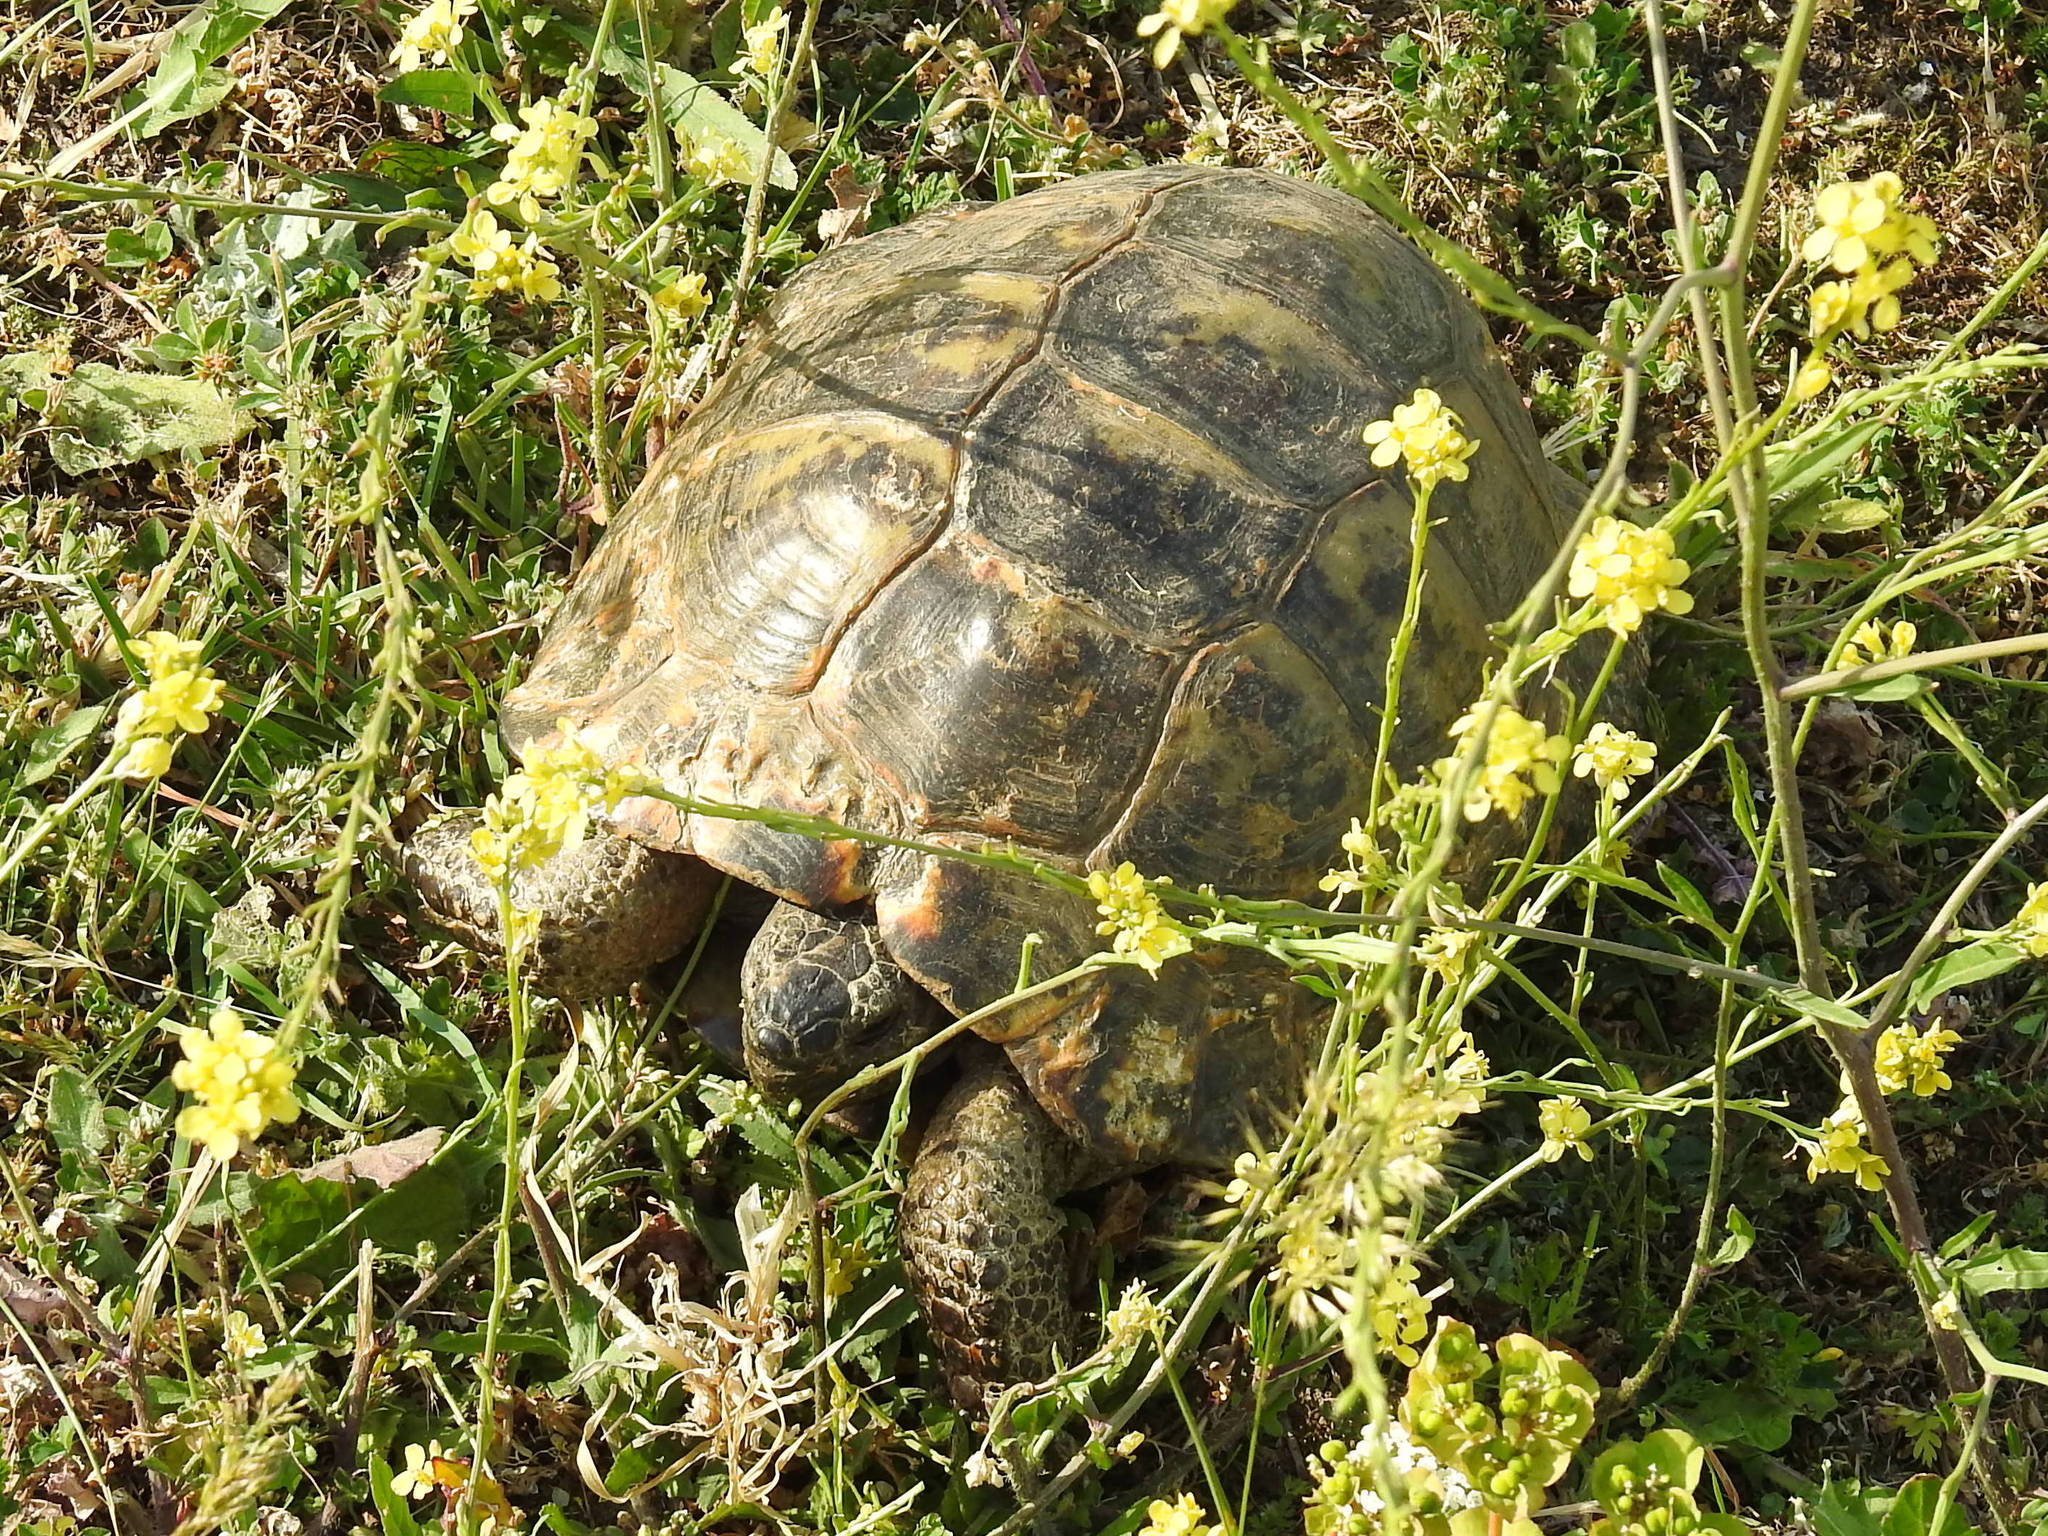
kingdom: Animalia
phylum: Chordata
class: Testudines
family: Testudinidae
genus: Testudo
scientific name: Testudo graeca
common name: Common tortoise
